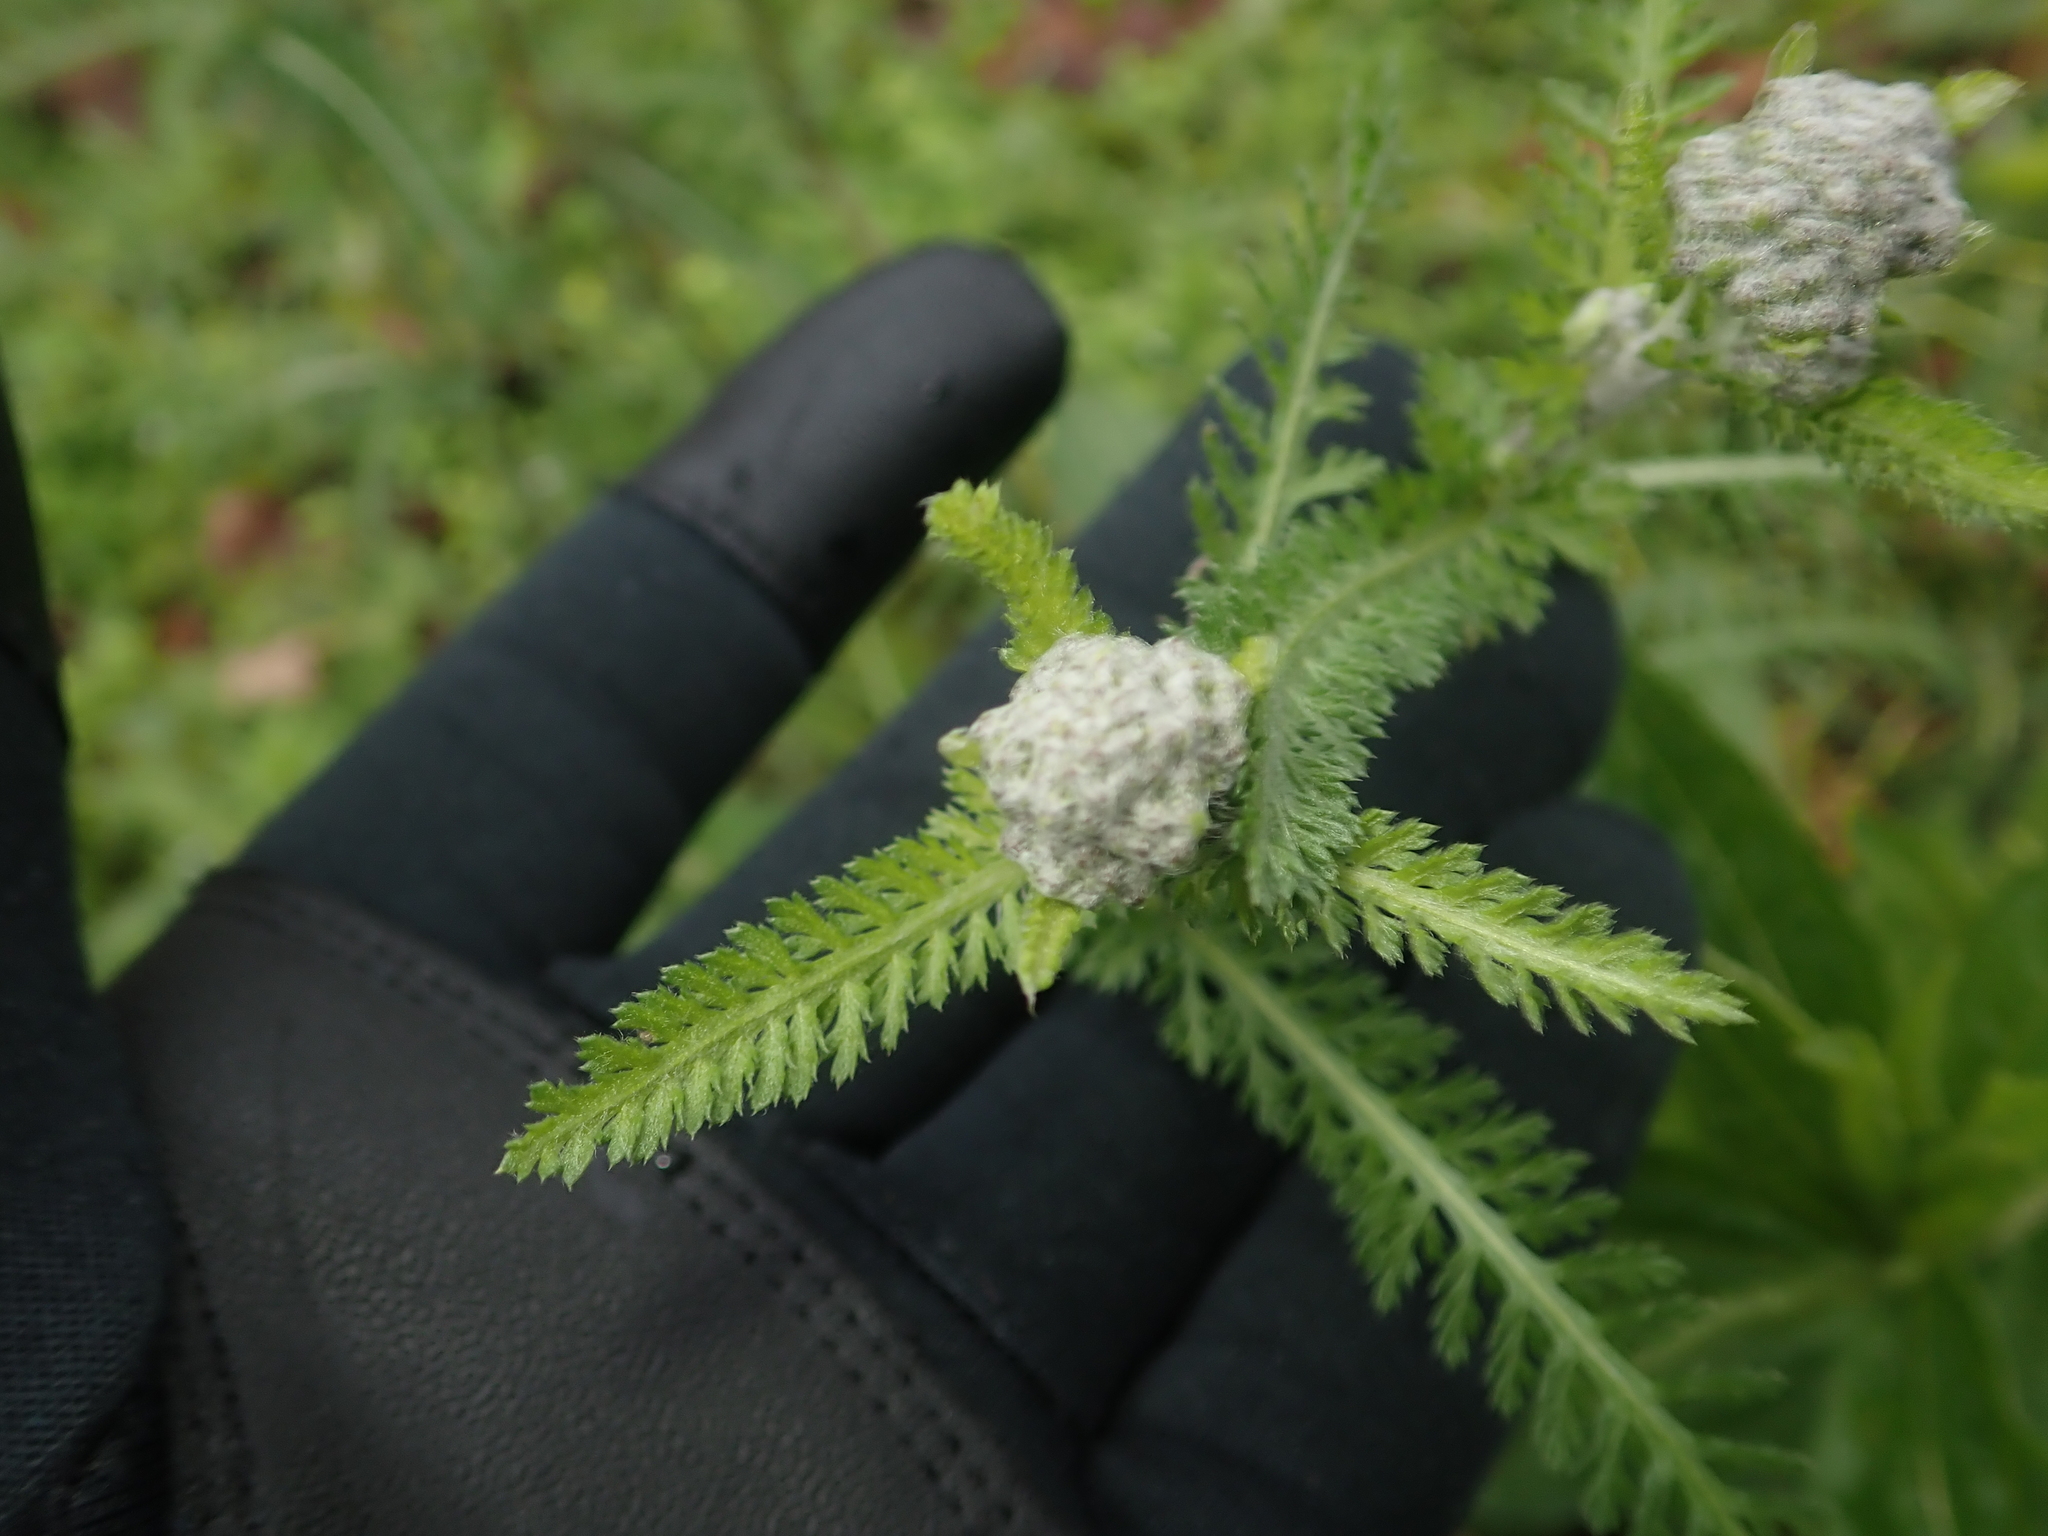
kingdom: Plantae
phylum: Tracheophyta
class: Magnoliopsida
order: Asterales
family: Asteraceae
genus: Achillea
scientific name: Achillea millefolium
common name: Yarrow
